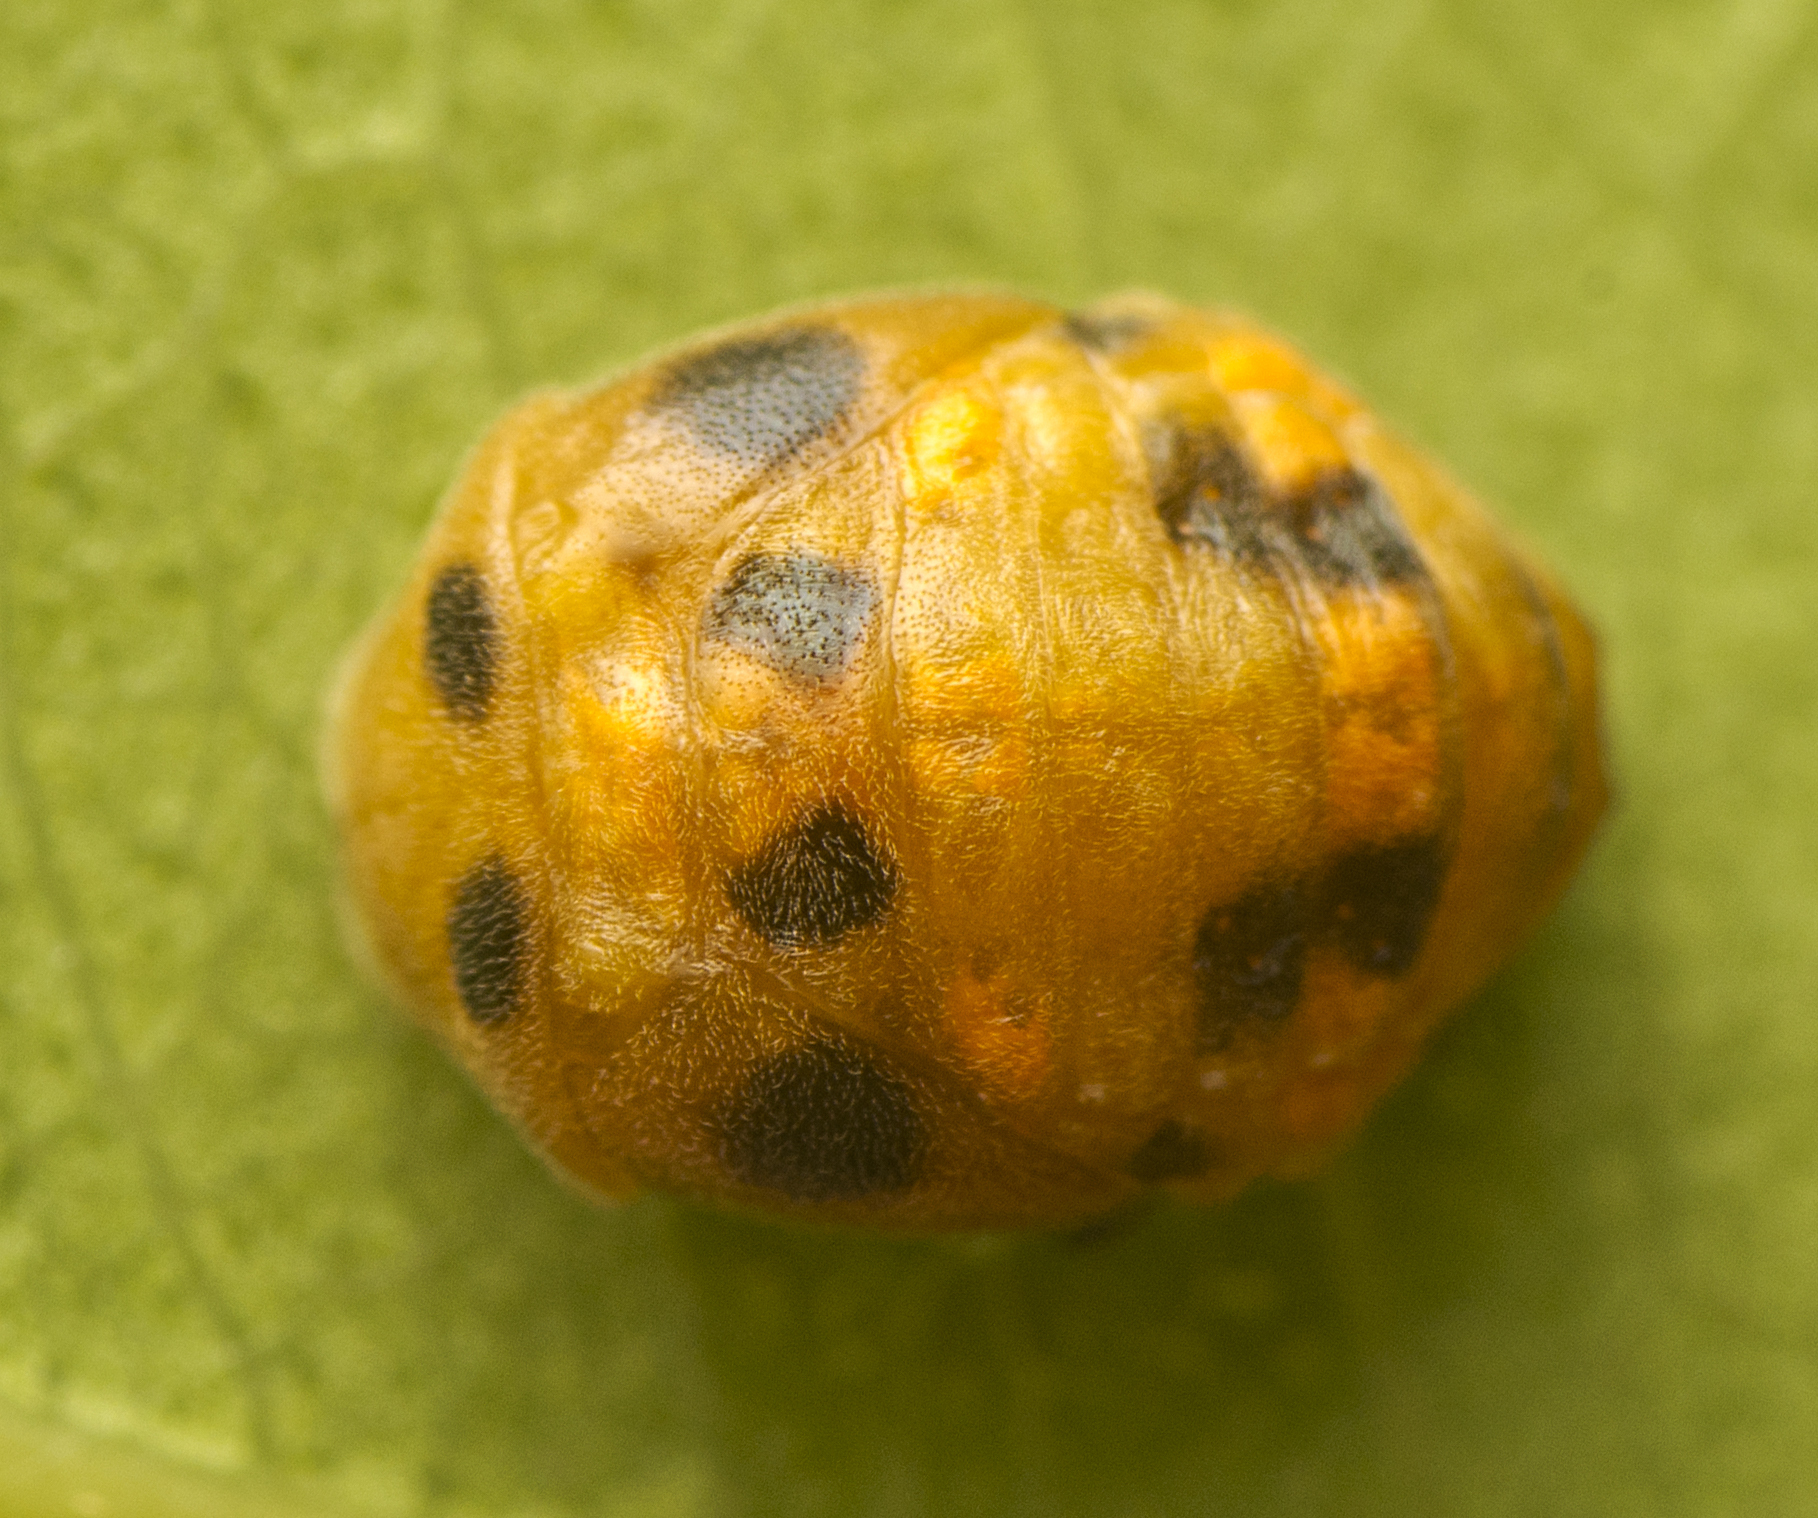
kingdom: Animalia
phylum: Arthropoda
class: Insecta
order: Coleoptera
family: Coccinellidae
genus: Coelophora
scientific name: Coelophora inaequalis
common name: Common australian lady beetle
